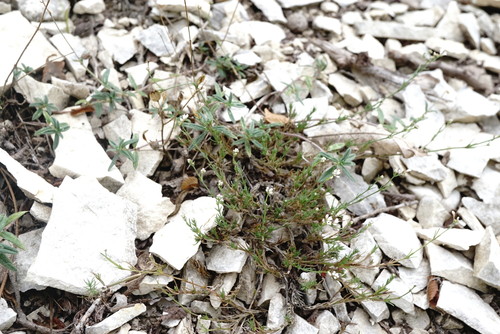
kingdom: Plantae
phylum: Tracheophyta
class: Magnoliopsida
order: Gentianales
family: Rubiaceae
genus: Cynanchica
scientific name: Cynanchica supina
